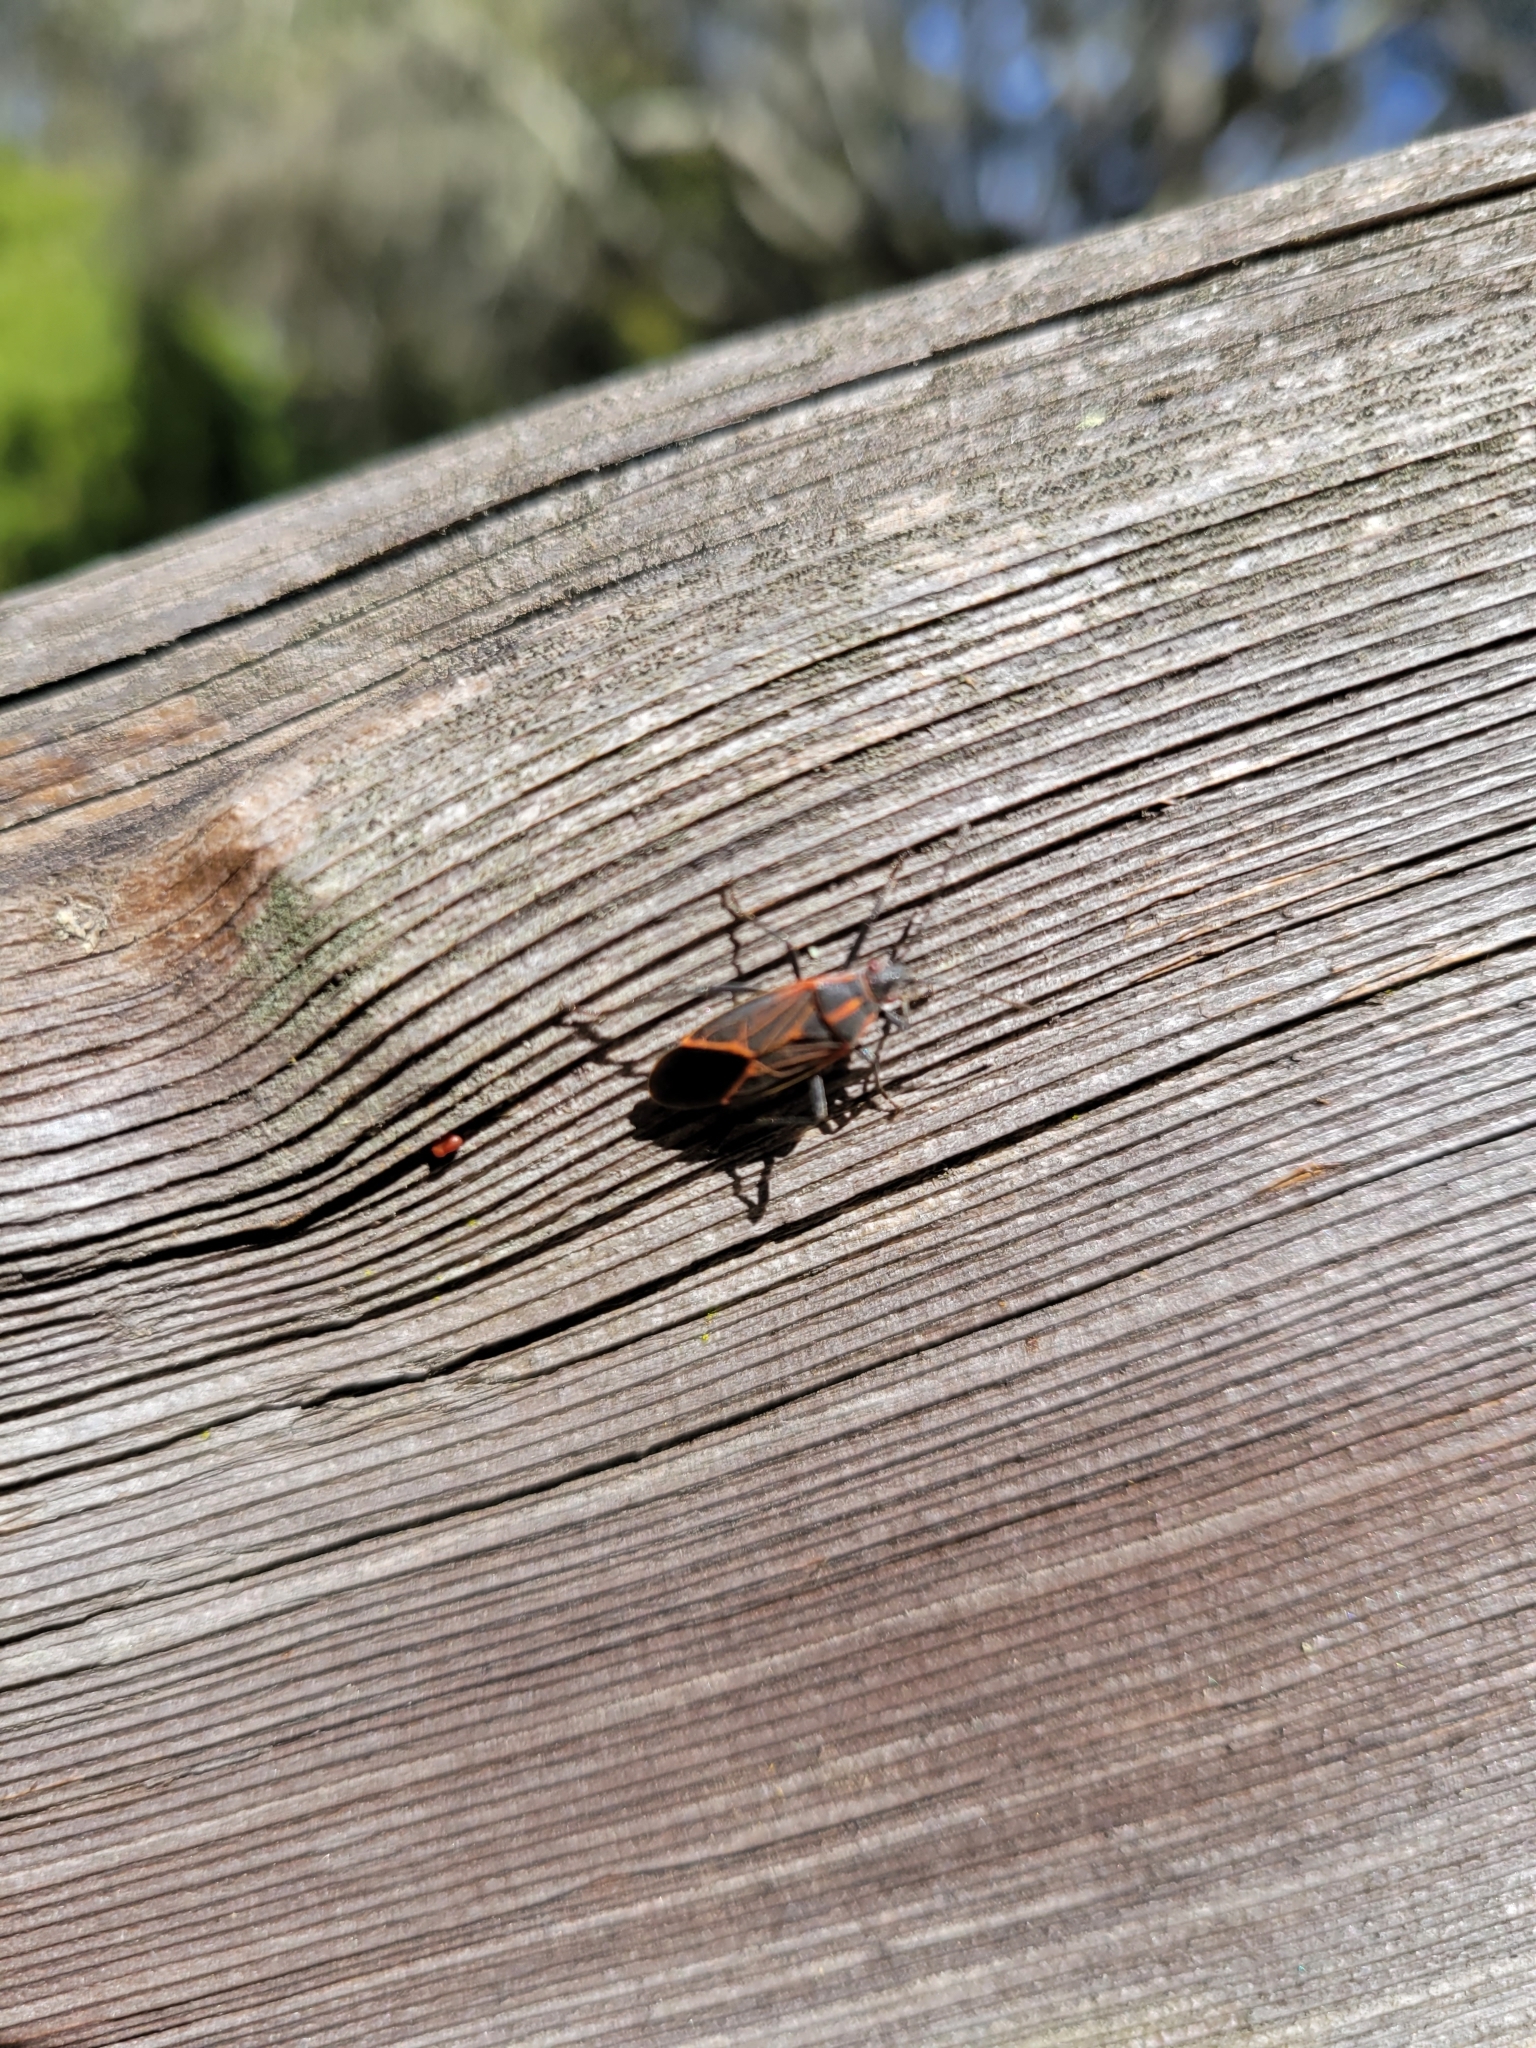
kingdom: Animalia
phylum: Arthropoda
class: Insecta
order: Hemiptera
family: Rhopalidae
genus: Boisea
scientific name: Boisea rubrolineata
